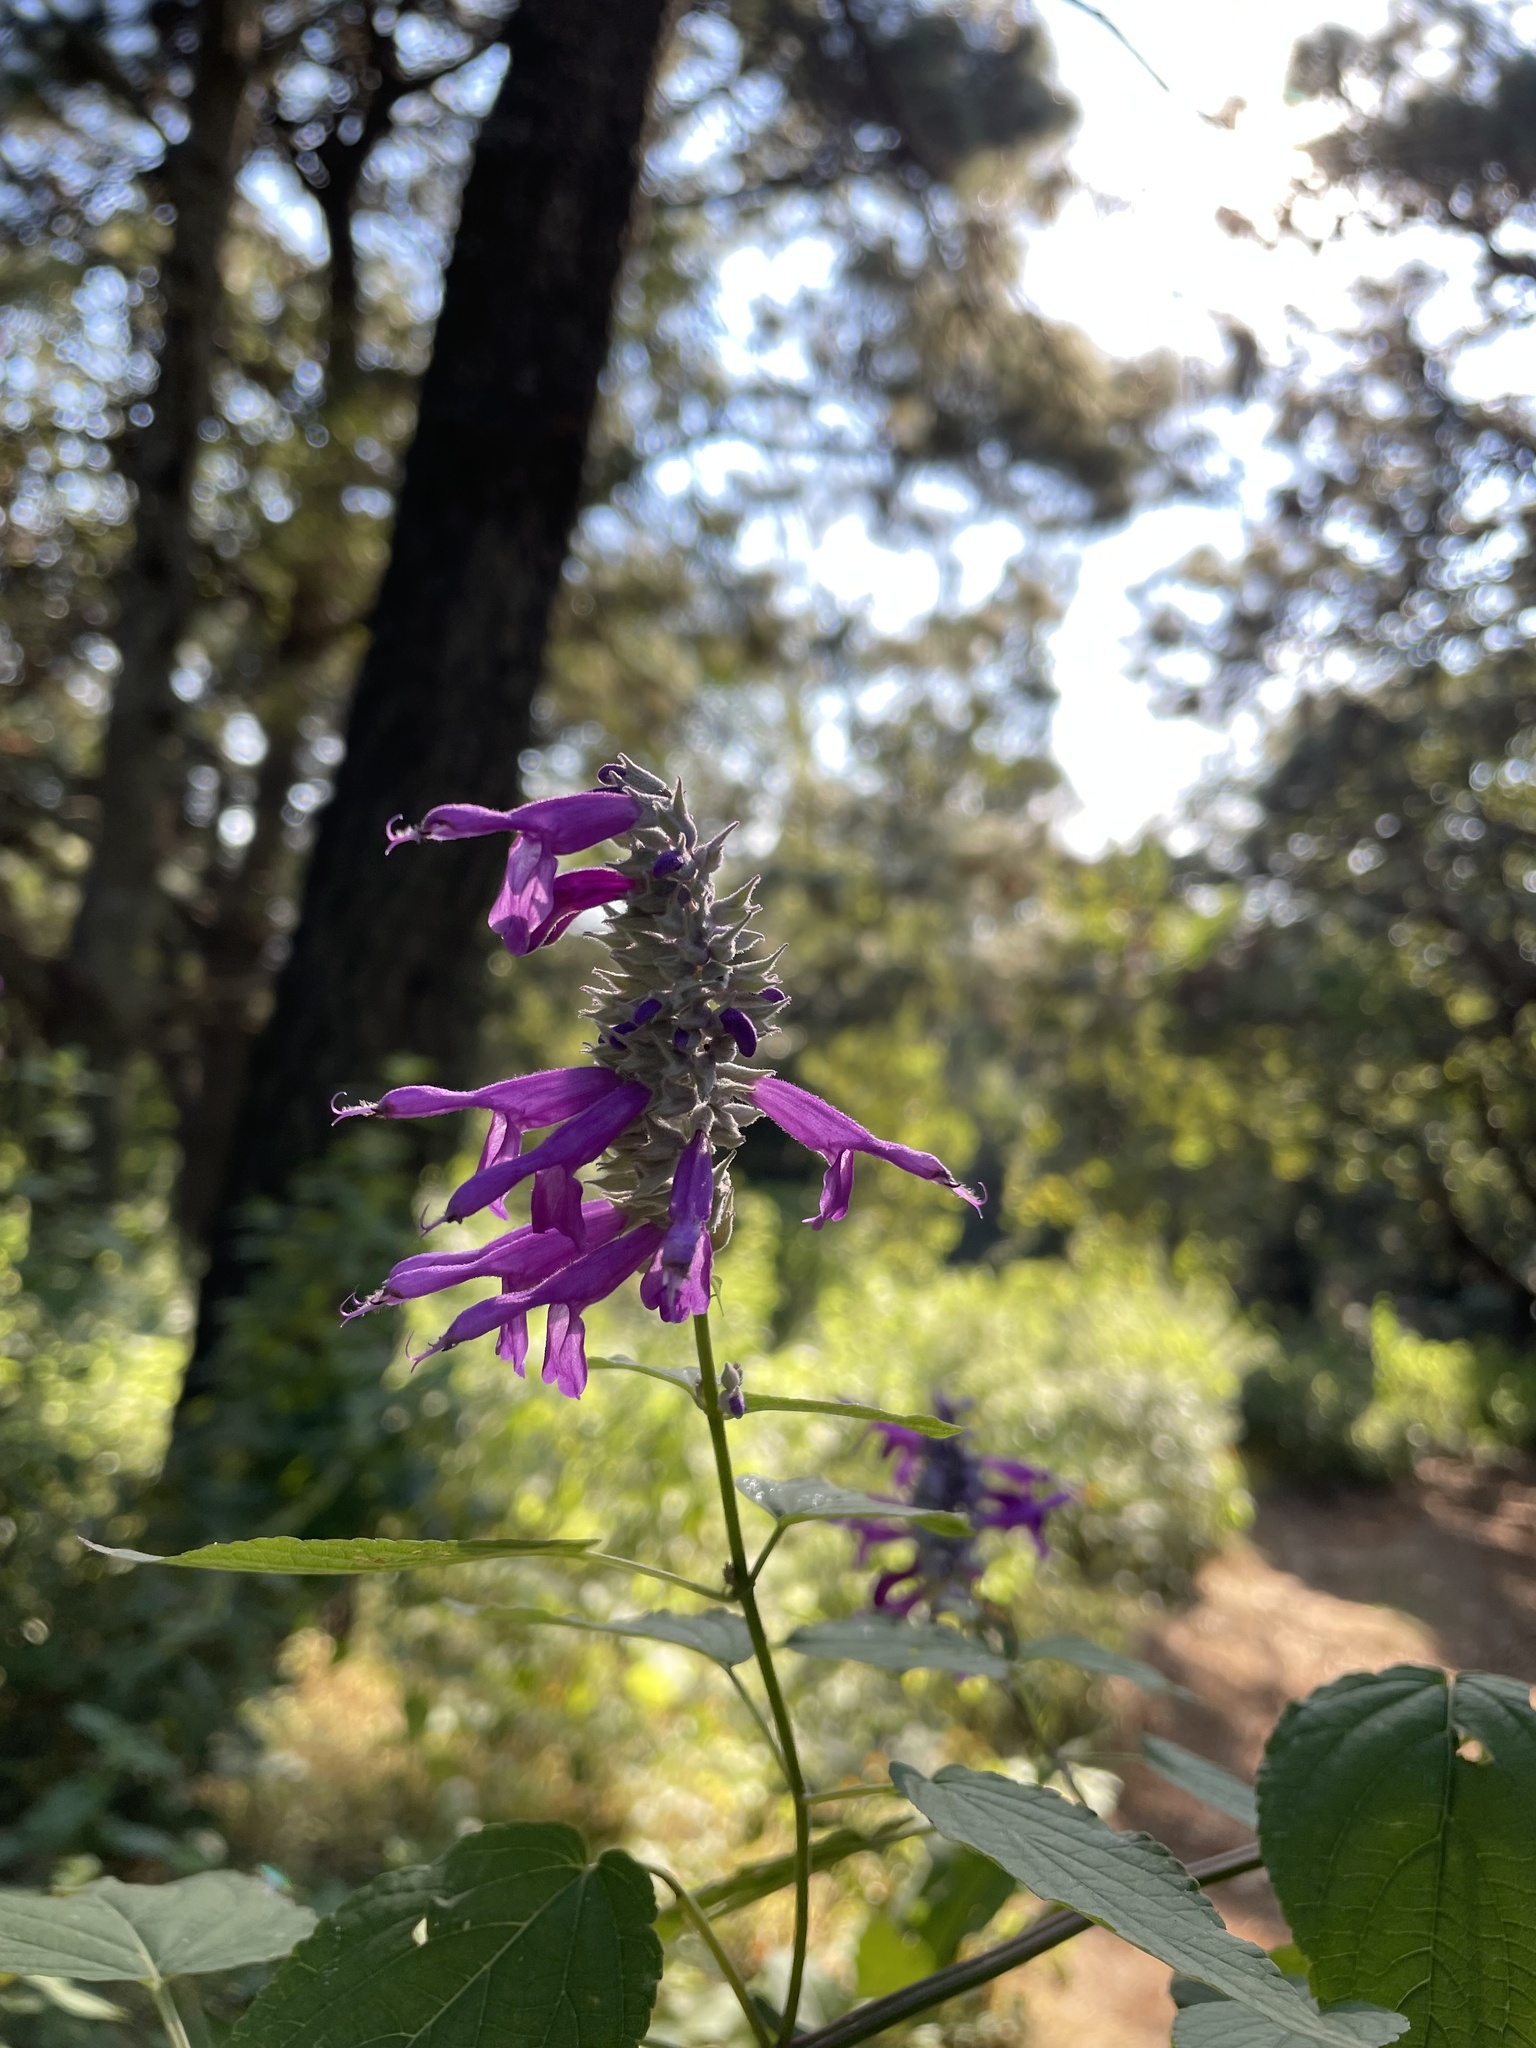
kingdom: Plantae
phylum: Tracheophyta
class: Magnoliopsida
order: Lamiales
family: Lamiaceae
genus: Salvia
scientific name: Salvia purpurea
